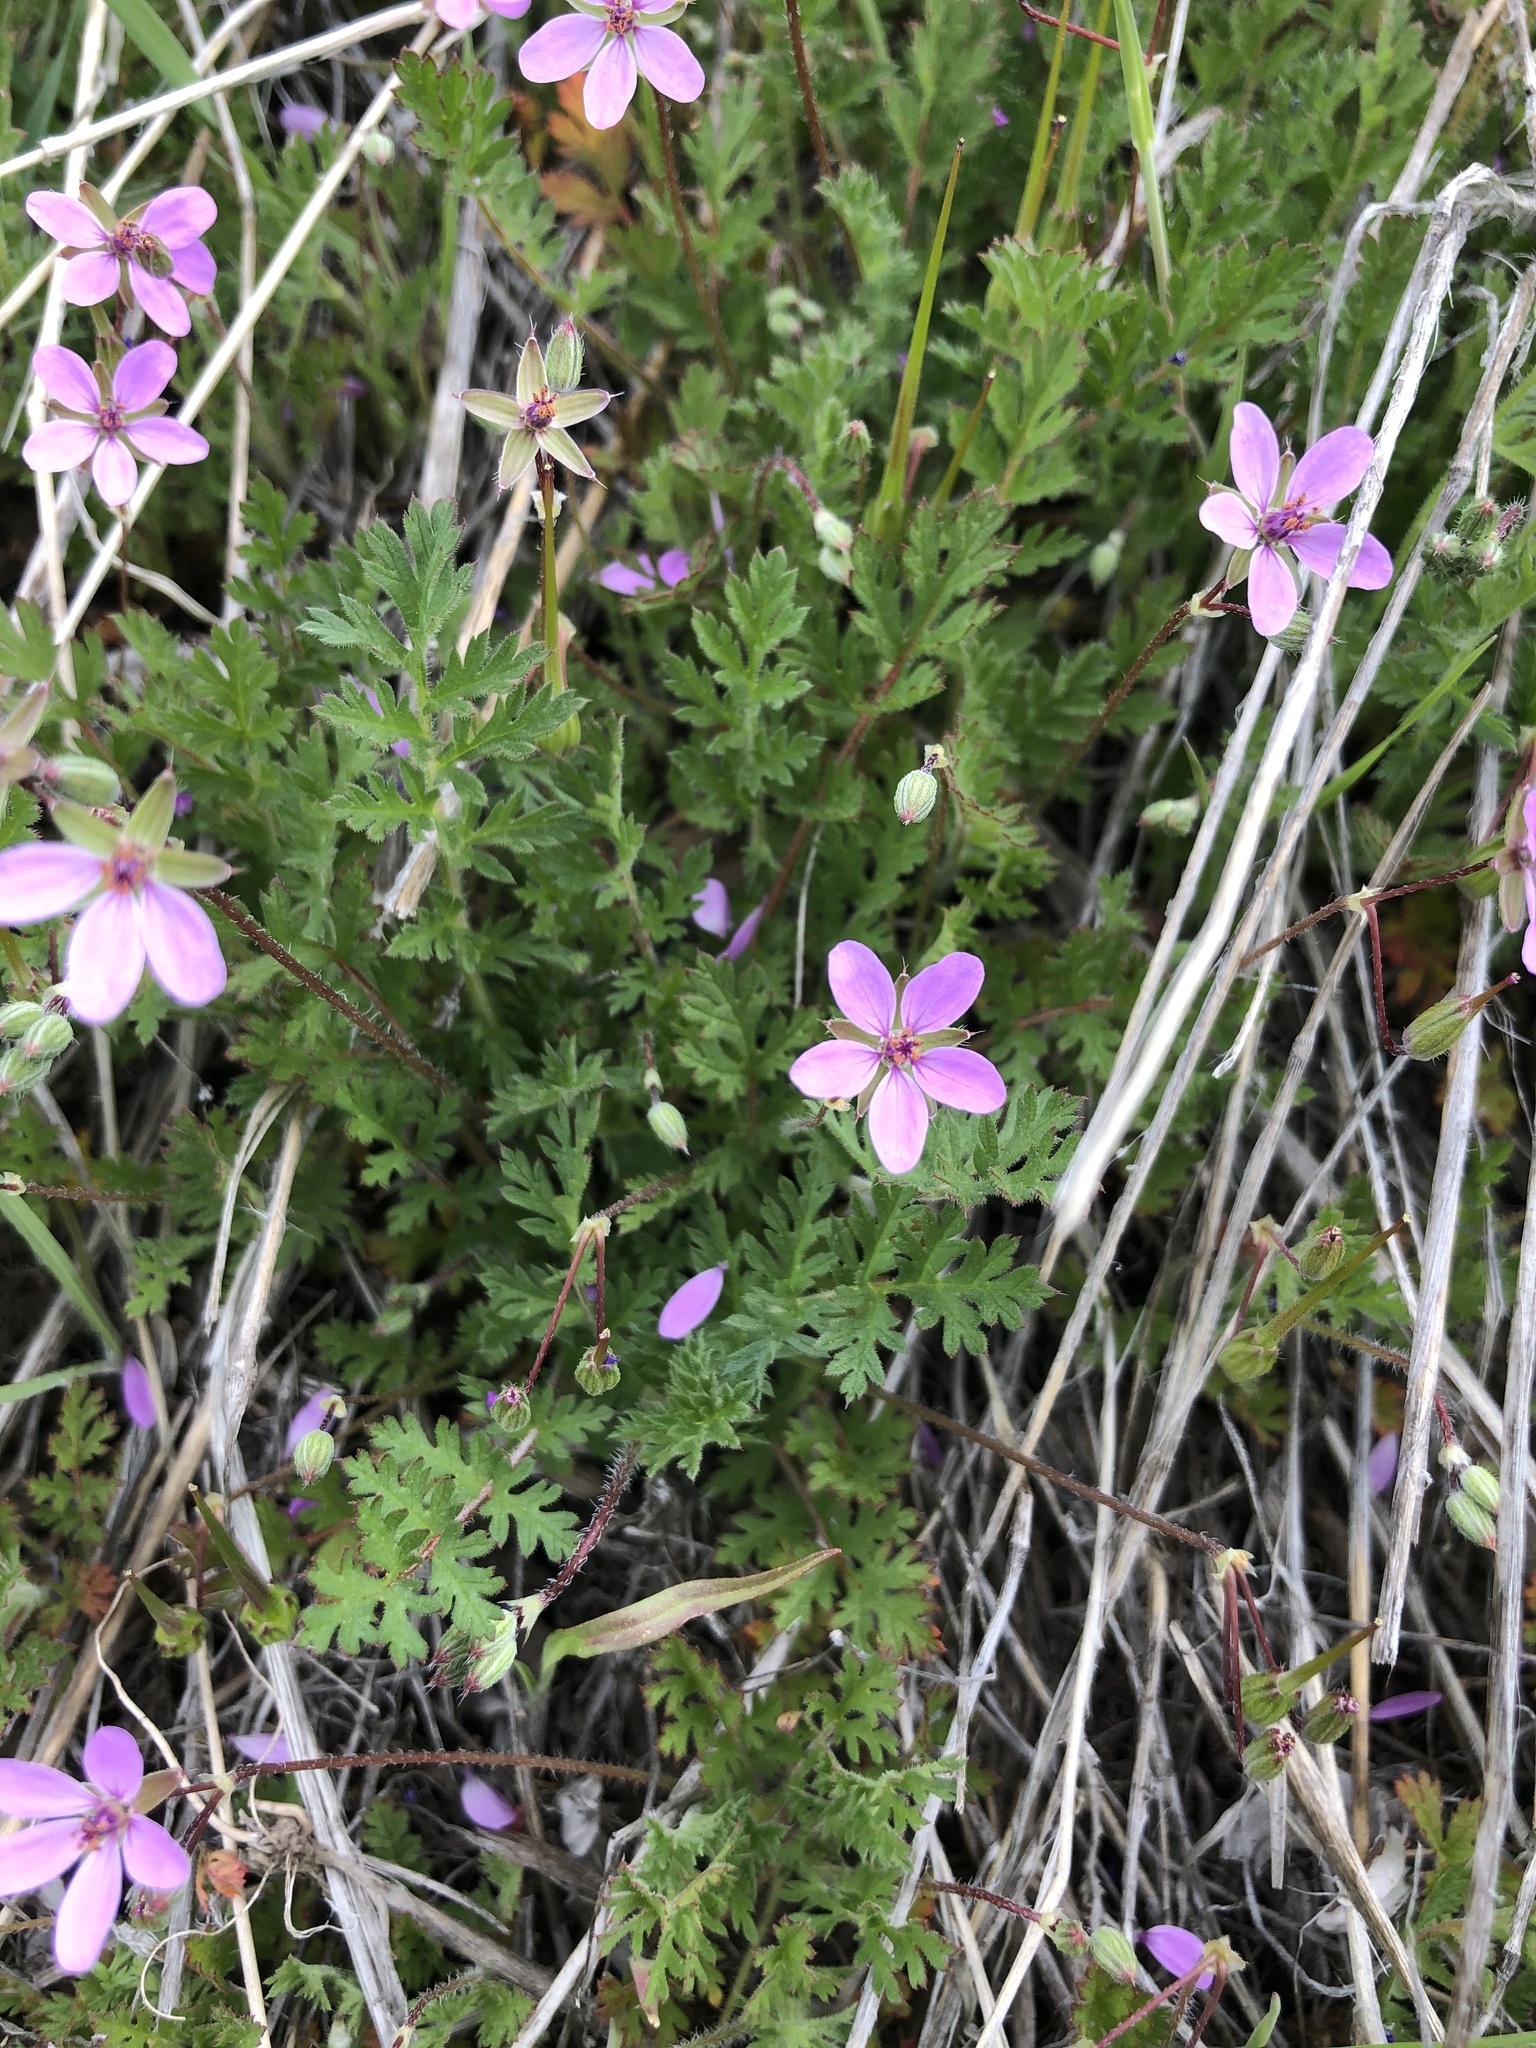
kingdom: Plantae
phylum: Tracheophyta
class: Magnoliopsida
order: Geraniales
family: Geraniaceae
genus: Erodium
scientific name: Erodium cicutarium
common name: Common stork's-bill
